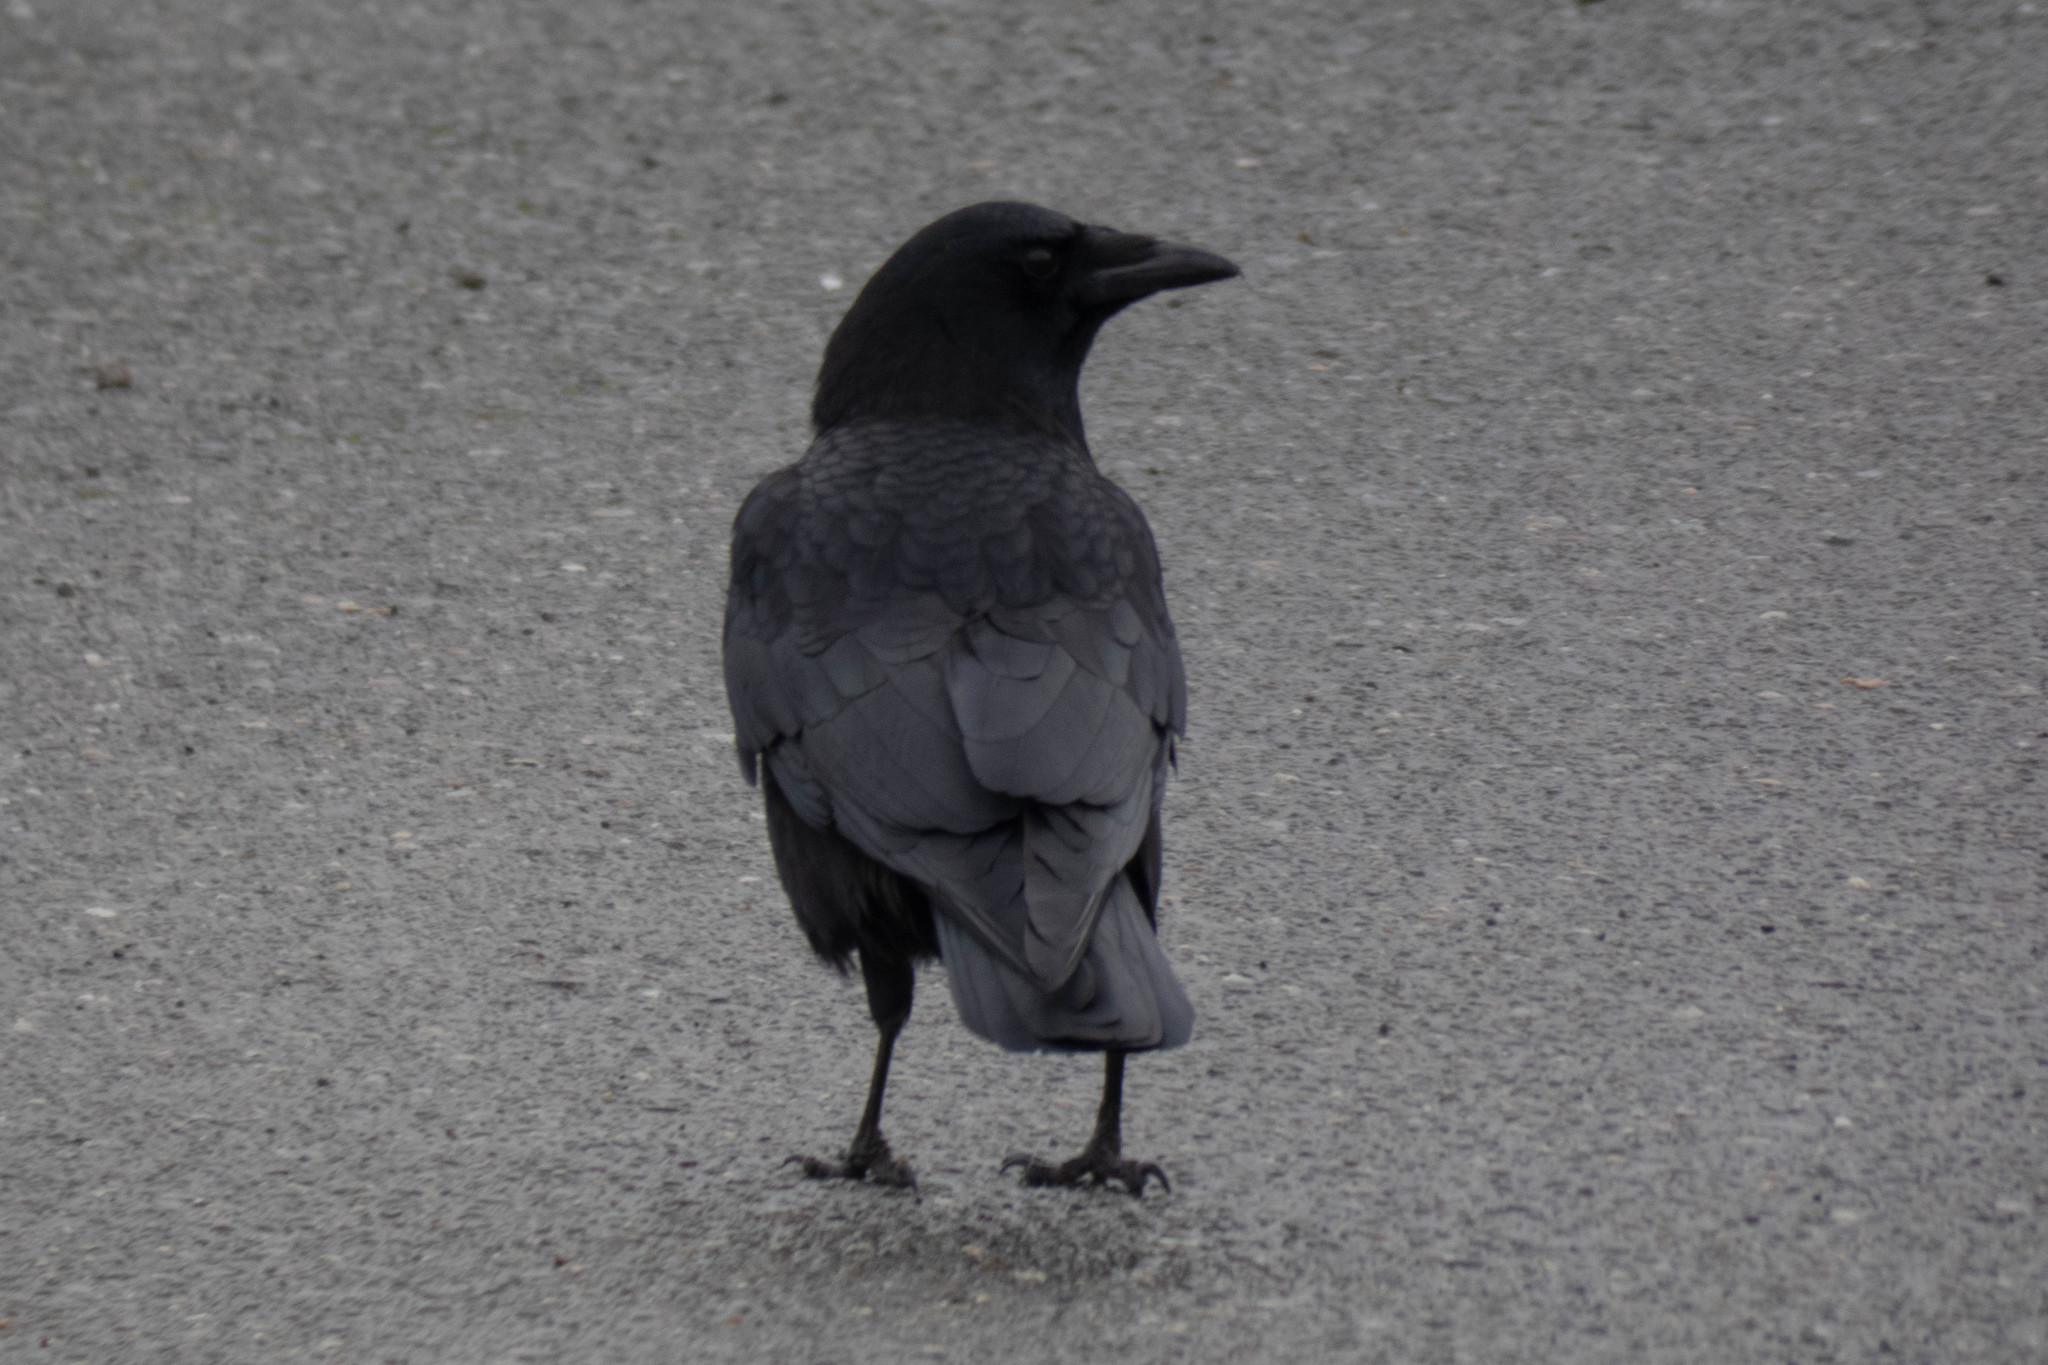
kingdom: Animalia
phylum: Chordata
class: Aves
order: Passeriformes
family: Corvidae
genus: Corvus
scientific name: Corvus brachyrhynchos
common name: American crow
